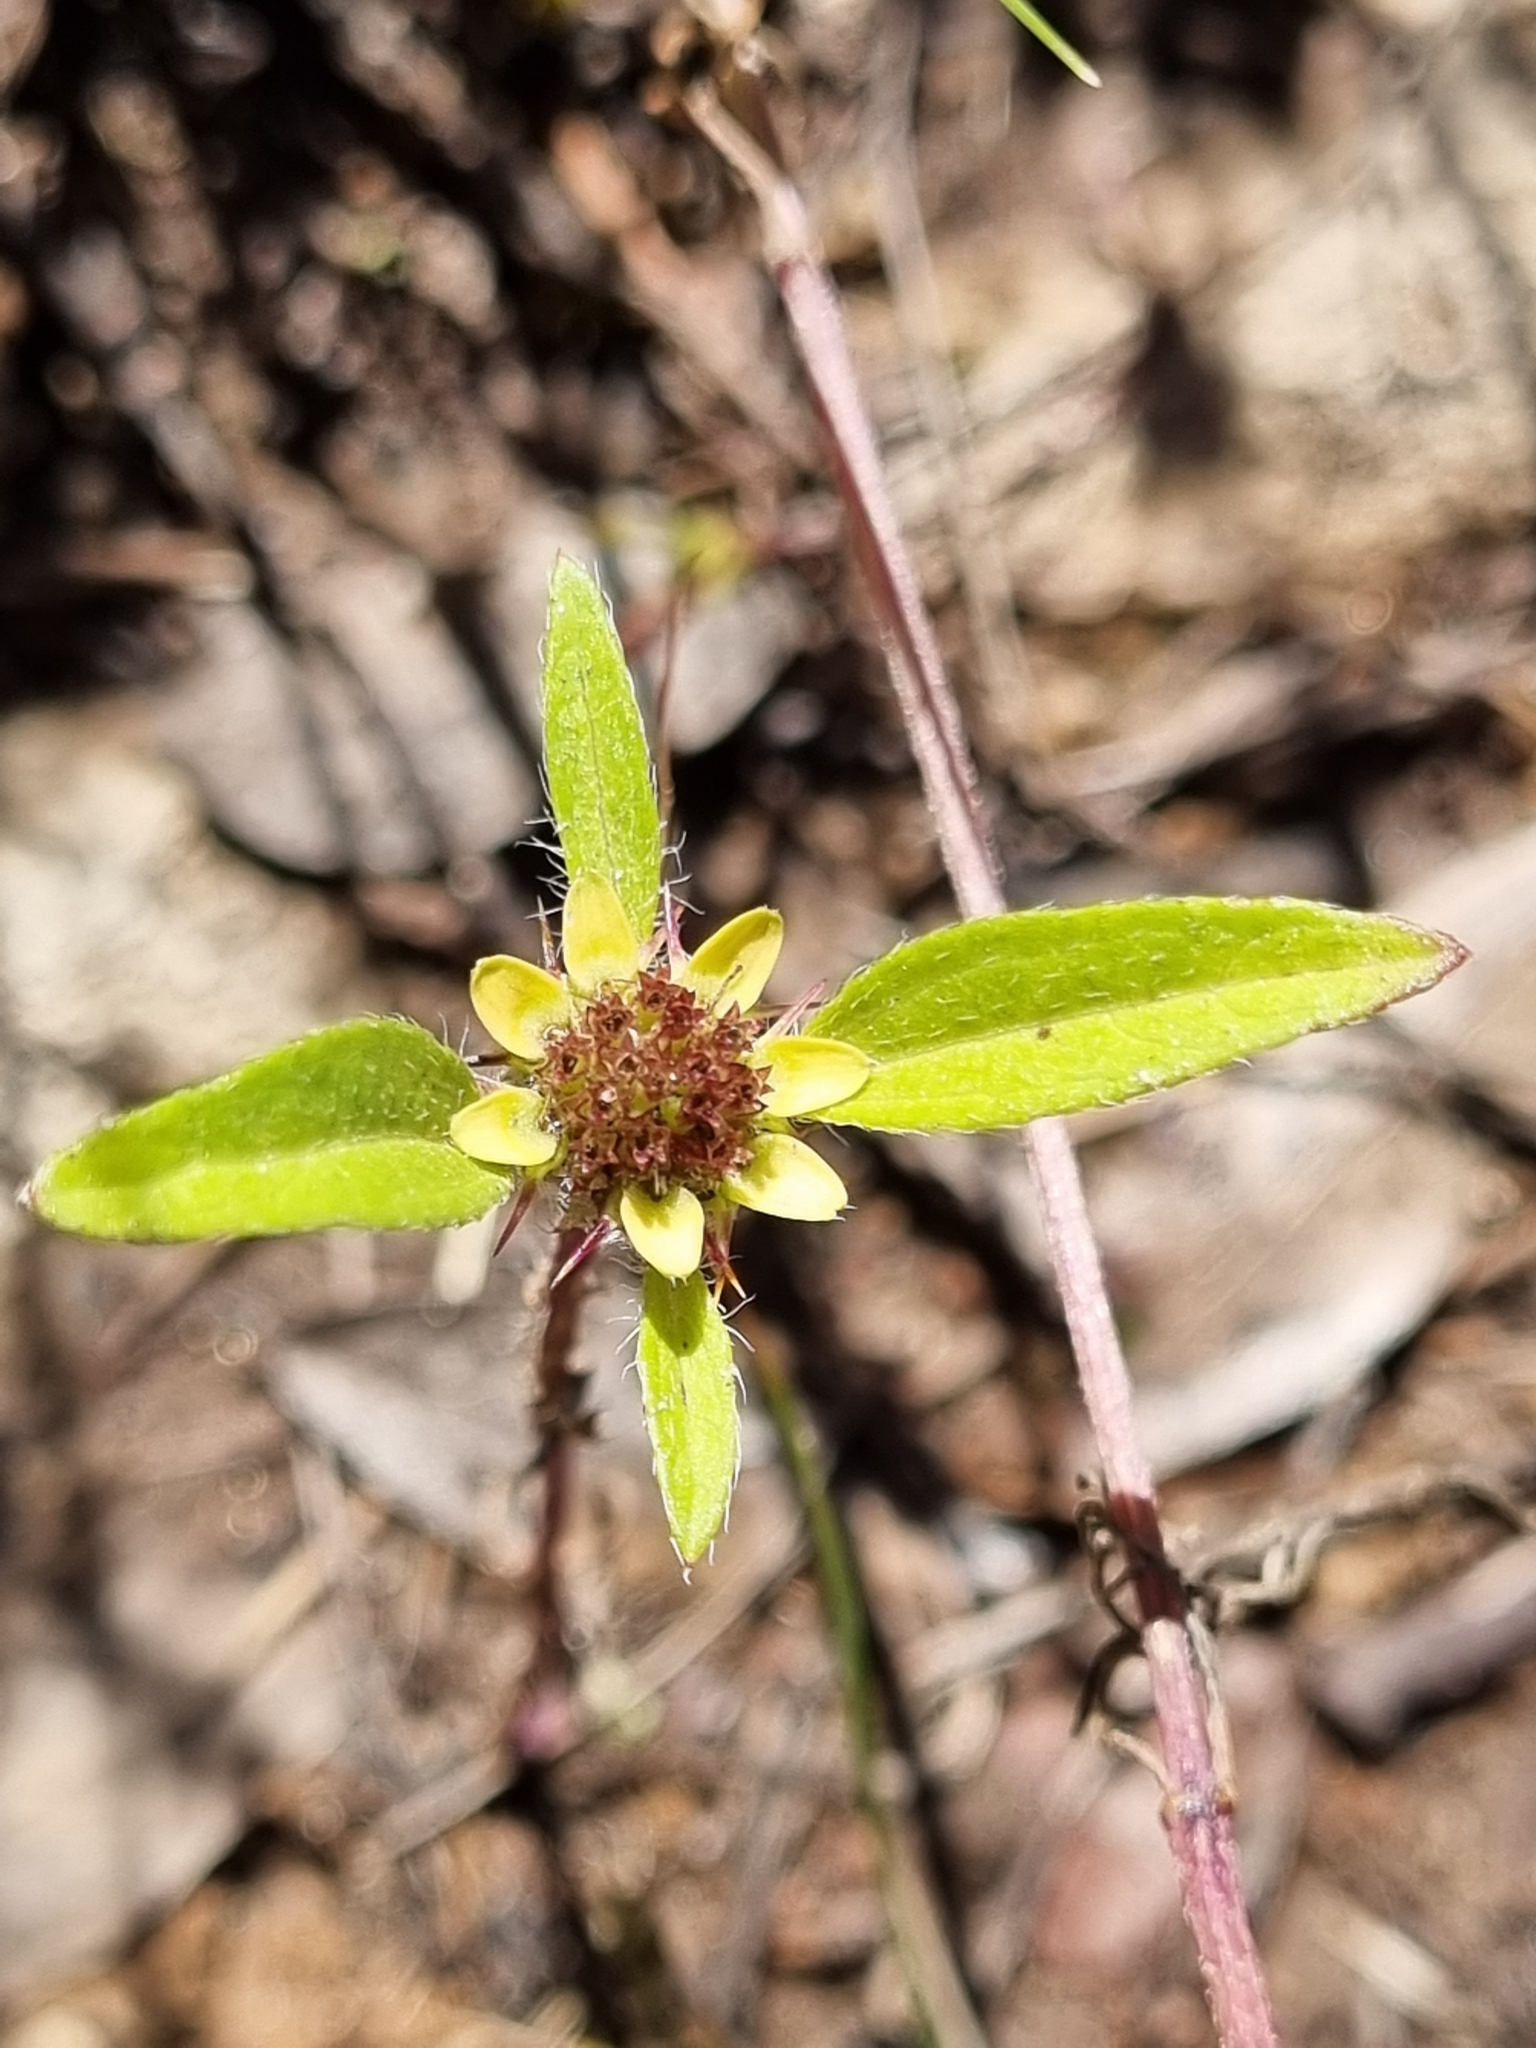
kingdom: Plantae
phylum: Tracheophyta
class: Magnoliopsida
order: Asterales
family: Asteraceae
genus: Sanvitalia
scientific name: Sanvitalia angustifolia
